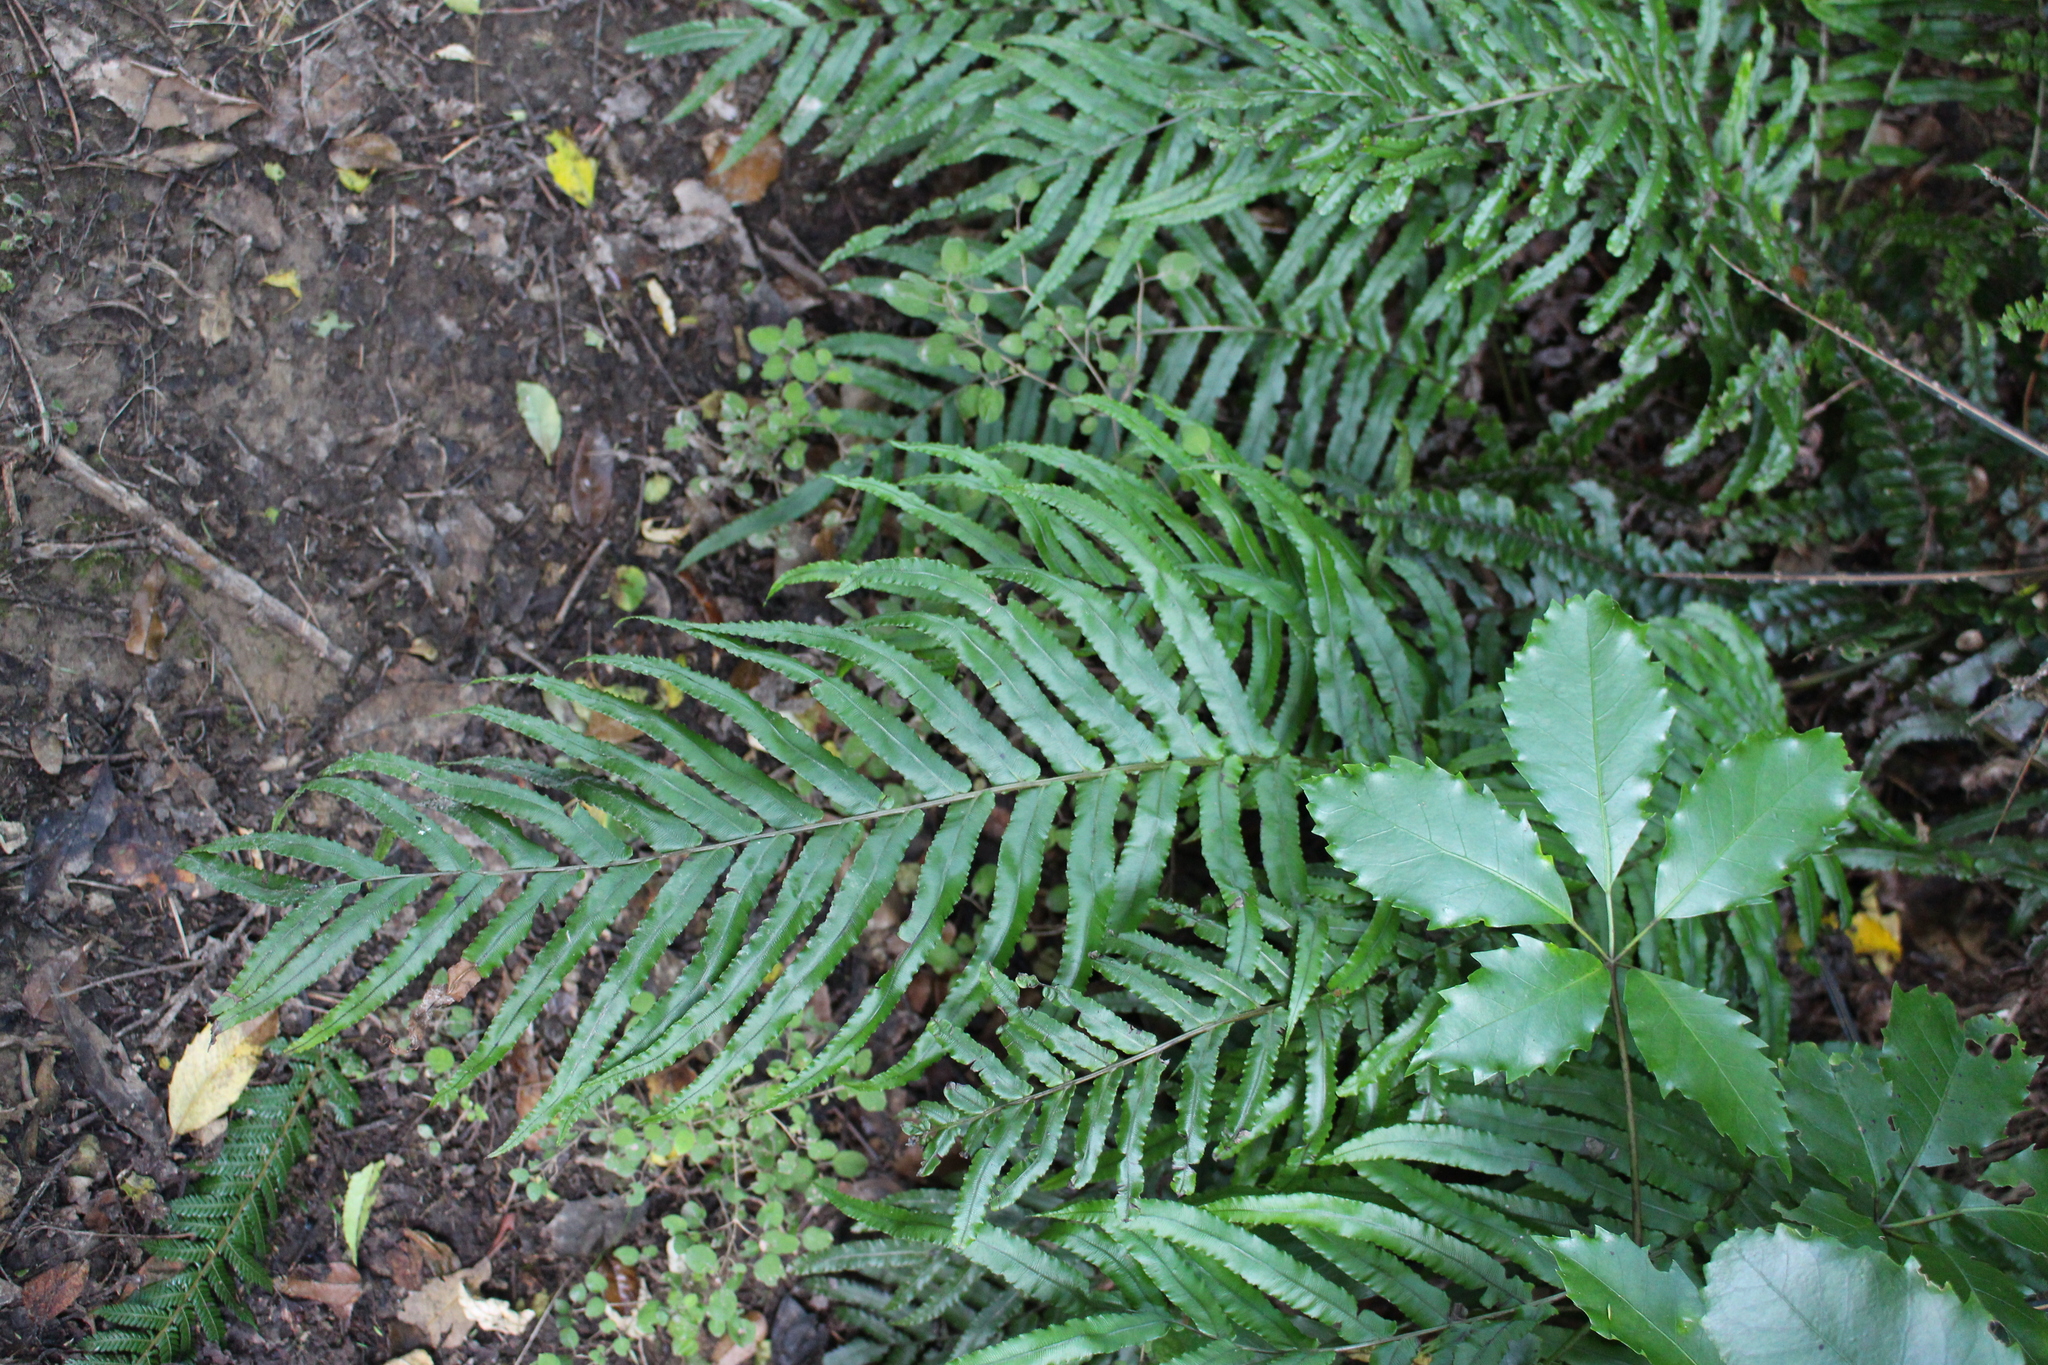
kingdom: Plantae
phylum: Tracheophyta
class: Polypodiopsida
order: Polypodiales
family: Blechnaceae
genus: Parablechnum
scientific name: Parablechnum novae-zelandiae
